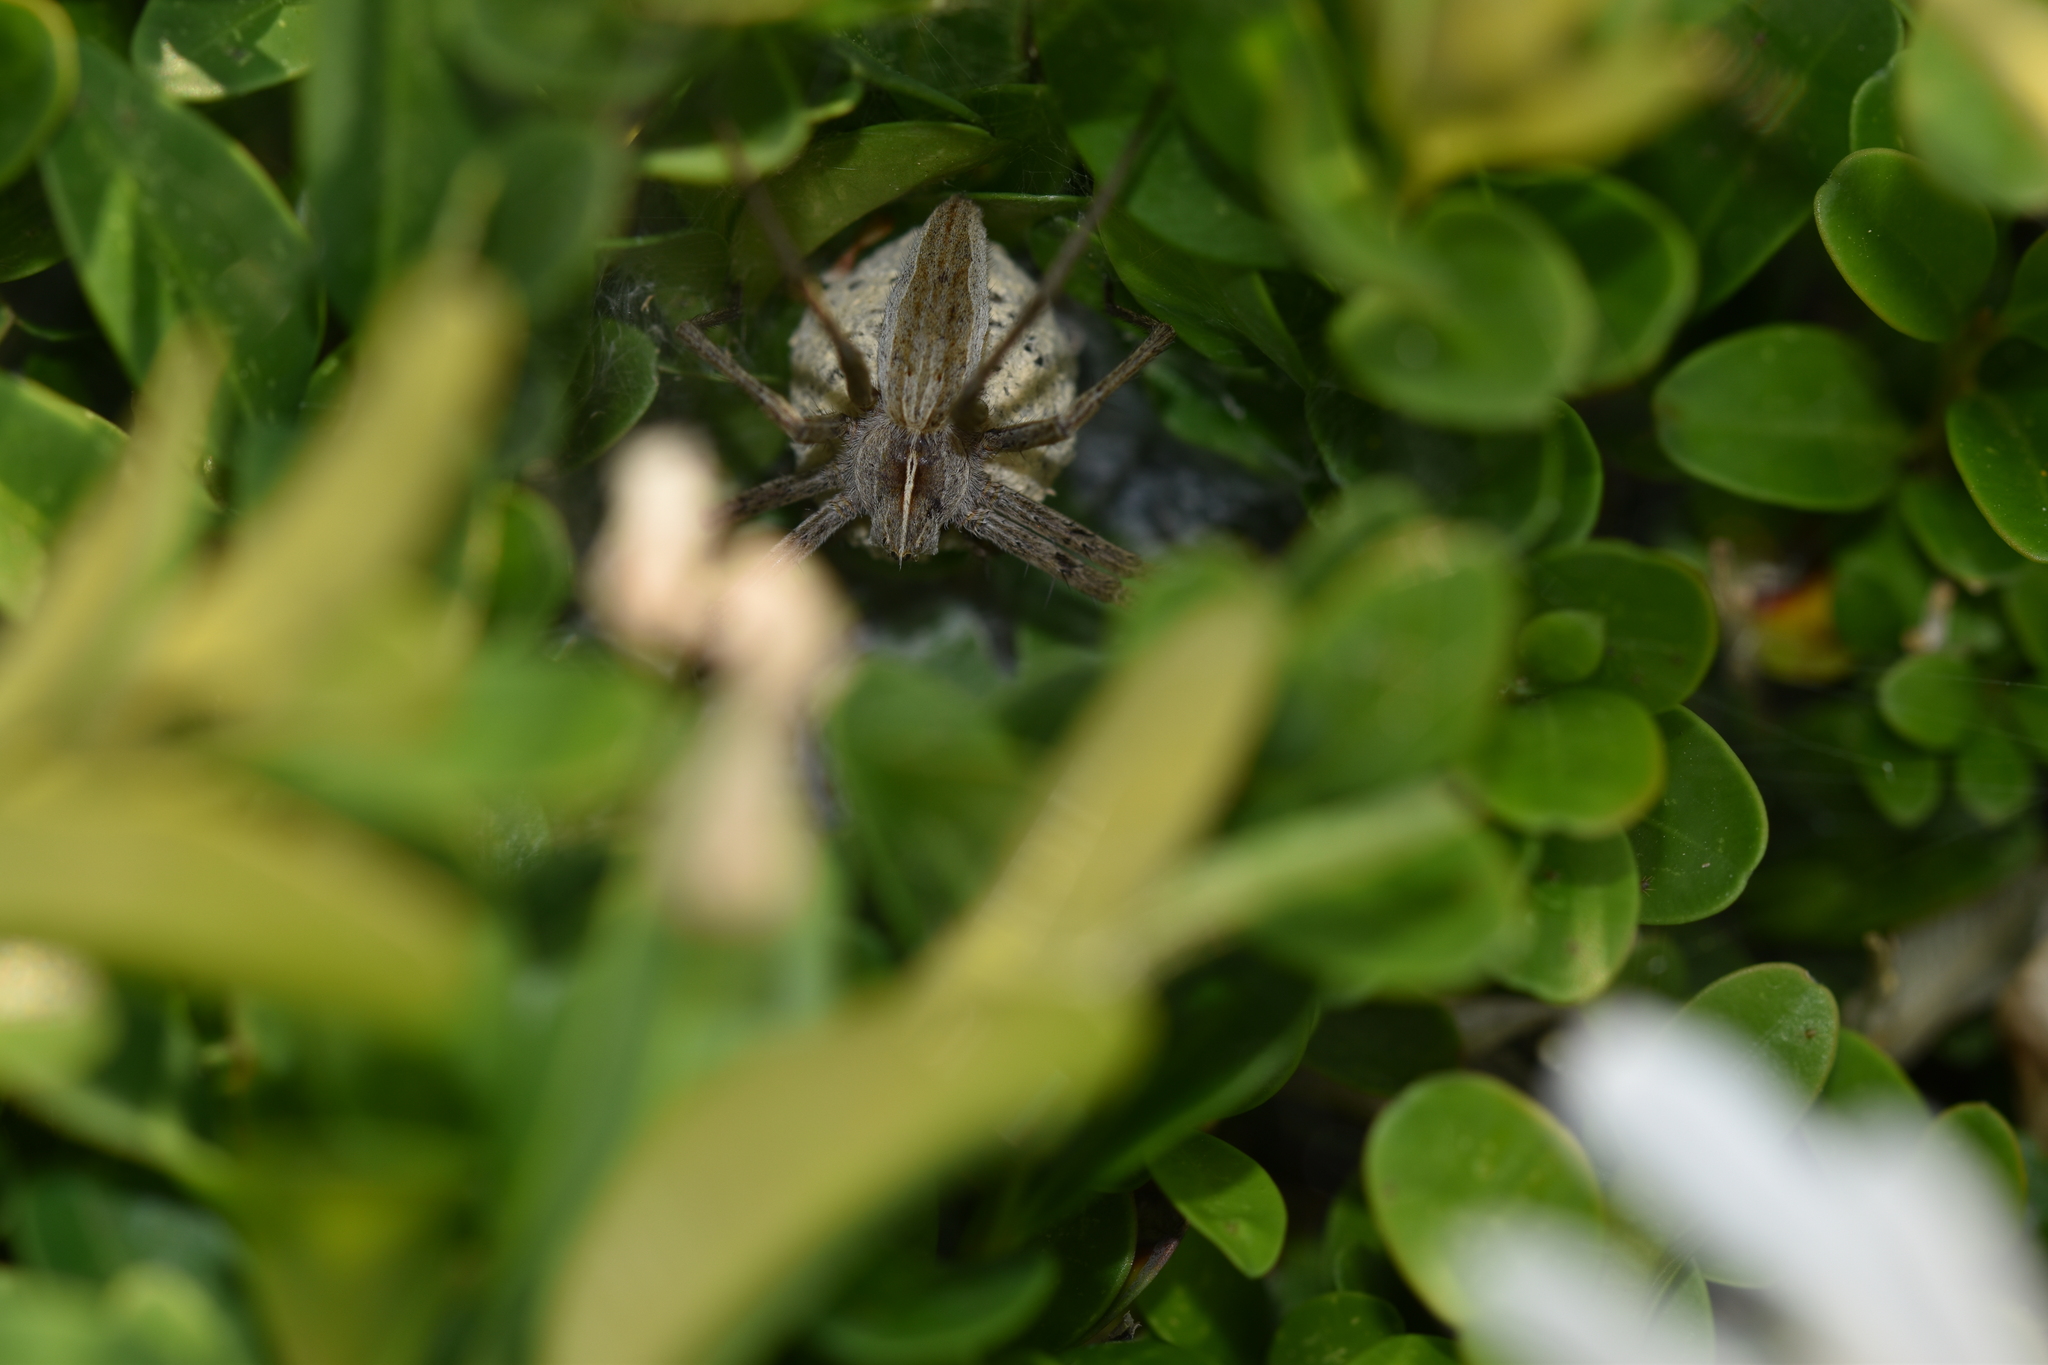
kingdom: Animalia
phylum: Arthropoda
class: Arachnida
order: Araneae
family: Pisauridae
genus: Pisaura
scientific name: Pisaura mirabilis
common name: Tent spider
